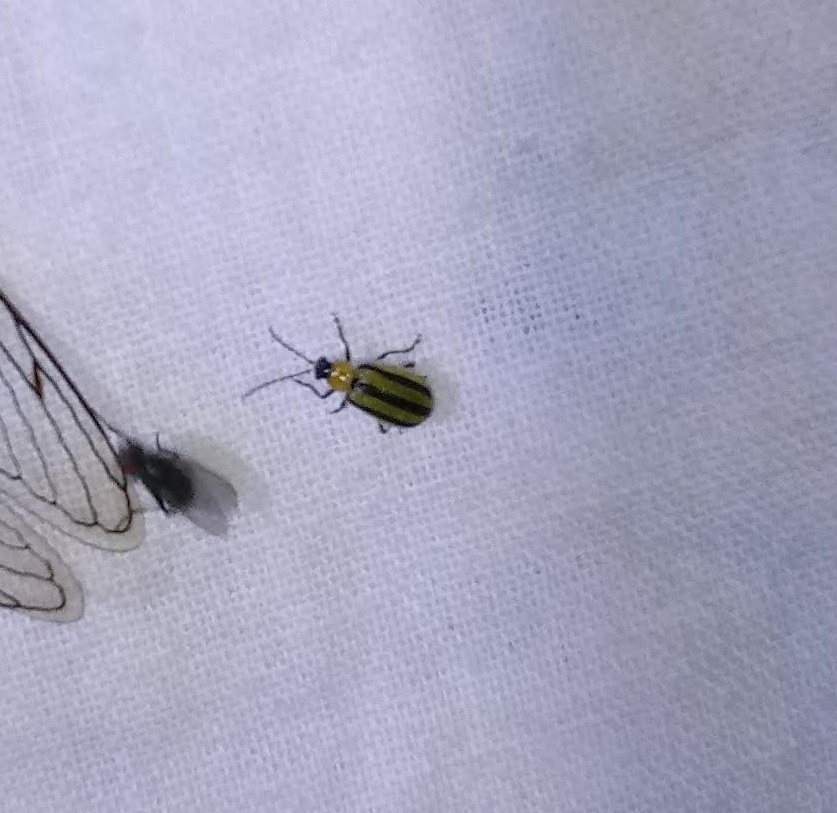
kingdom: Animalia
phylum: Arthropoda
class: Insecta
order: Coleoptera
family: Chrysomelidae
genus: Acalymma
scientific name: Acalymma vittatum
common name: Striped cucumber beetle
